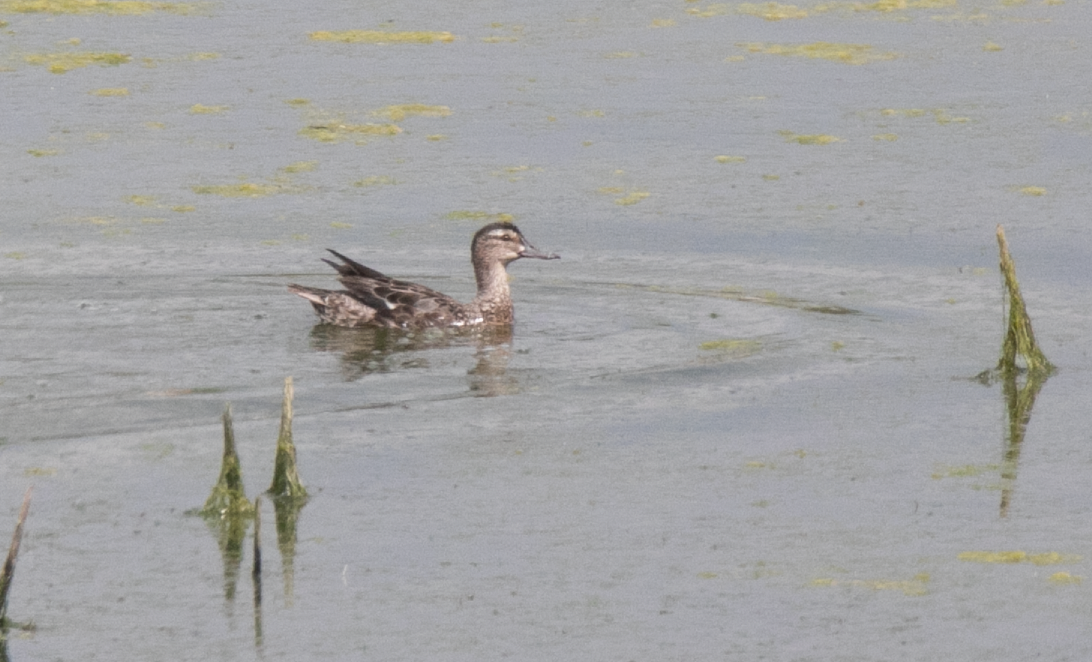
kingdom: Animalia
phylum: Chordata
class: Aves
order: Anseriformes
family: Anatidae
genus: Spatula
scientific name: Spatula querquedula
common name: Garganey
